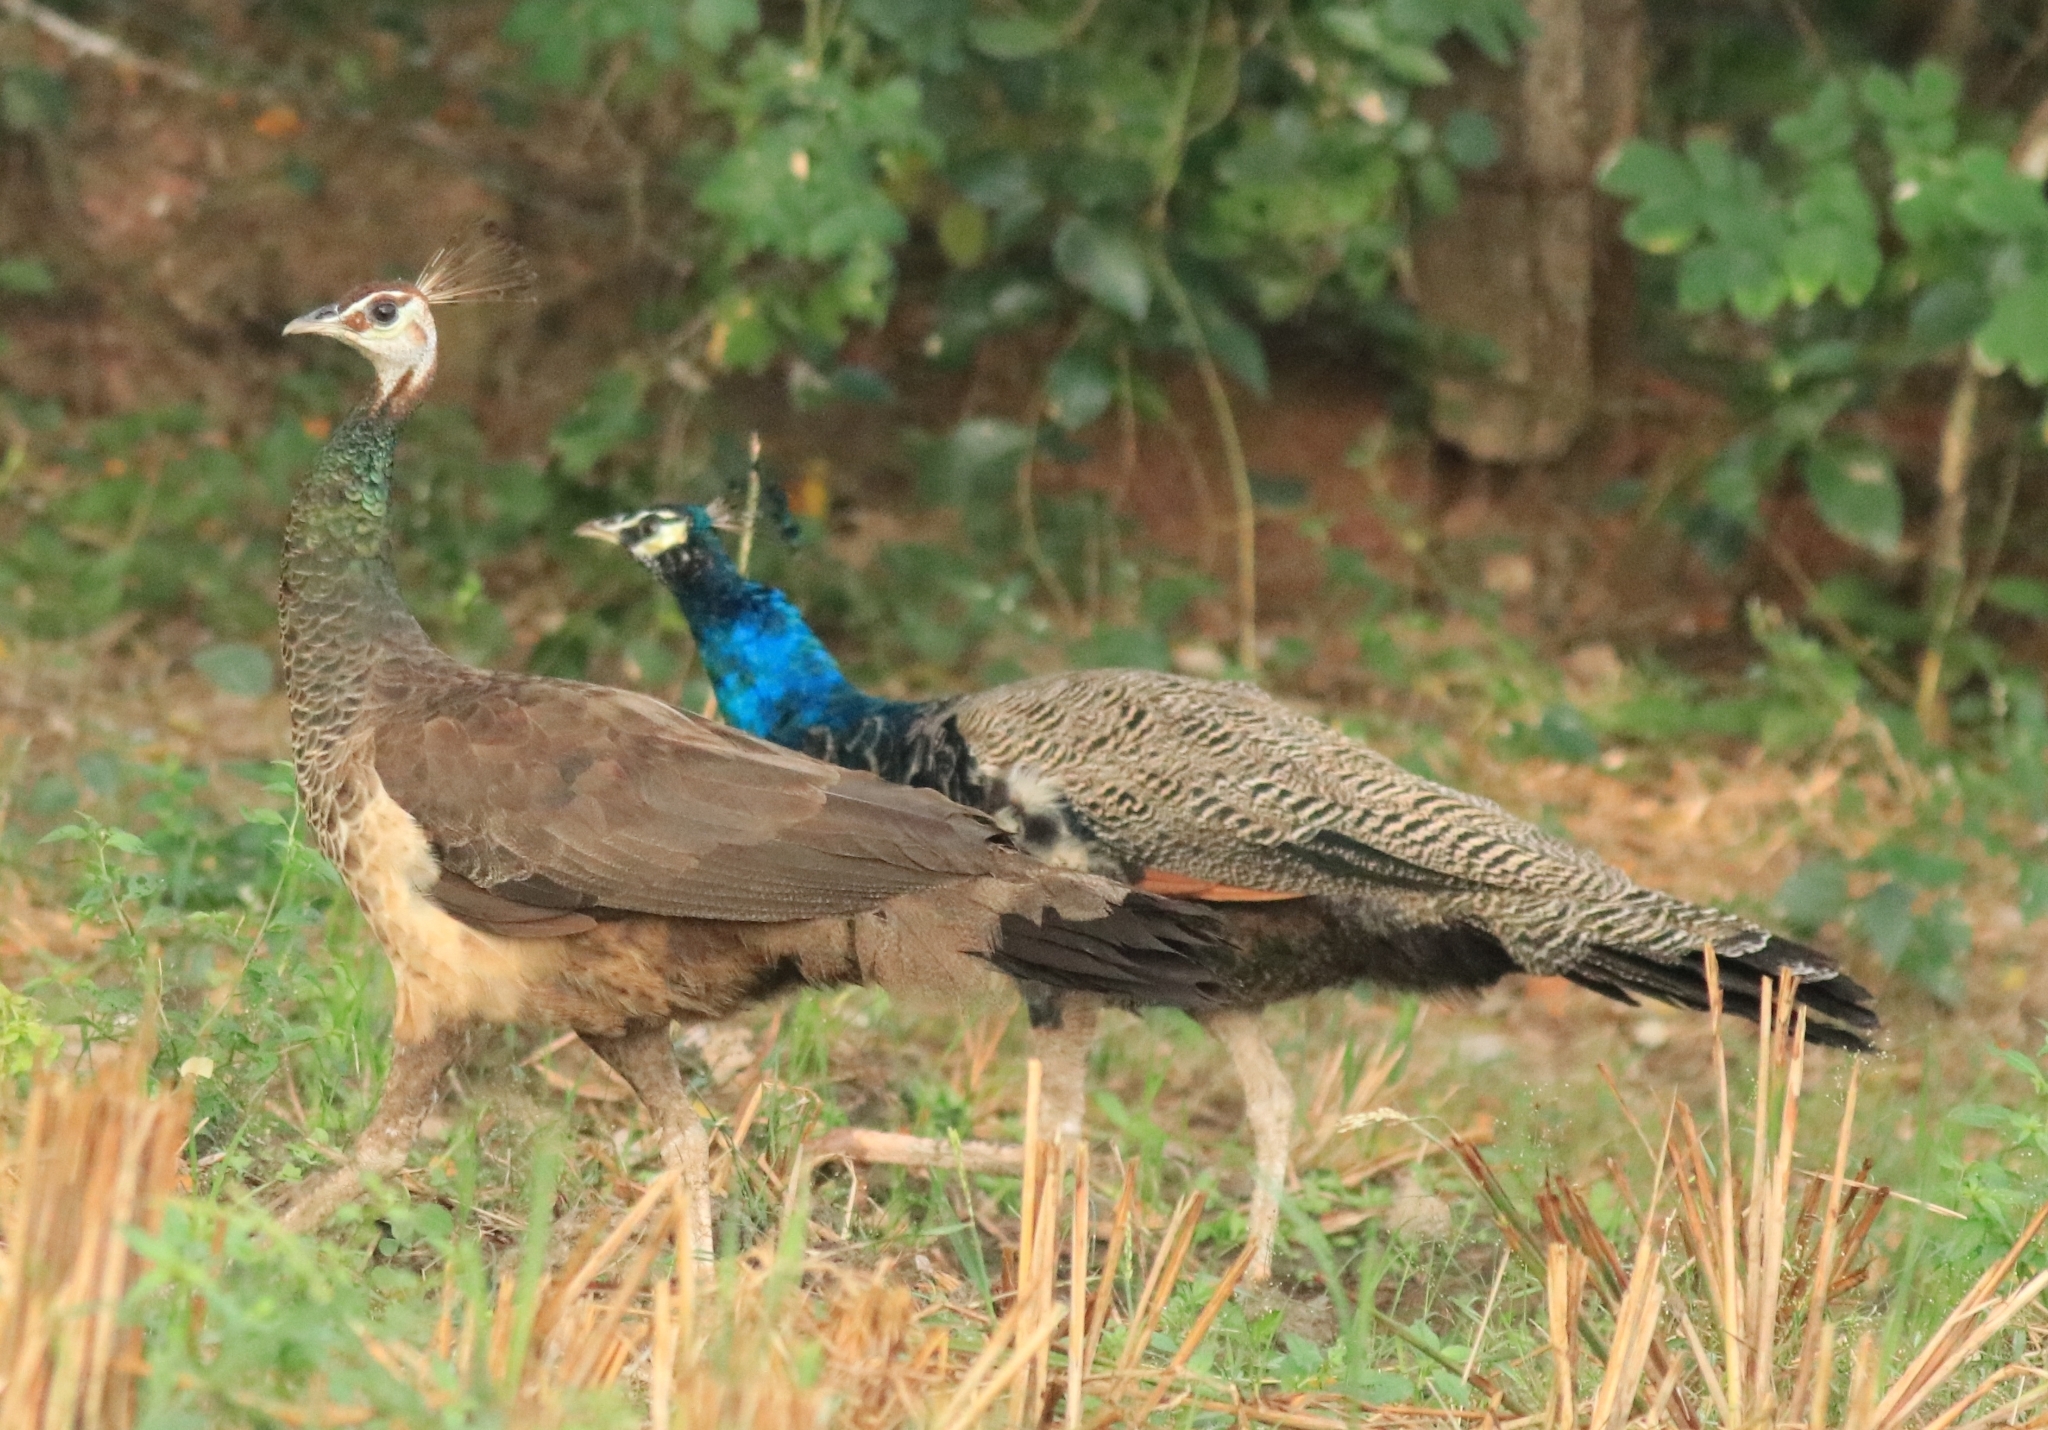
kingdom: Animalia
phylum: Chordata
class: Aves
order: Galliformes
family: Phasianidae
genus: Pavo
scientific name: Pavo cristatus
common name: Indian peafowl
